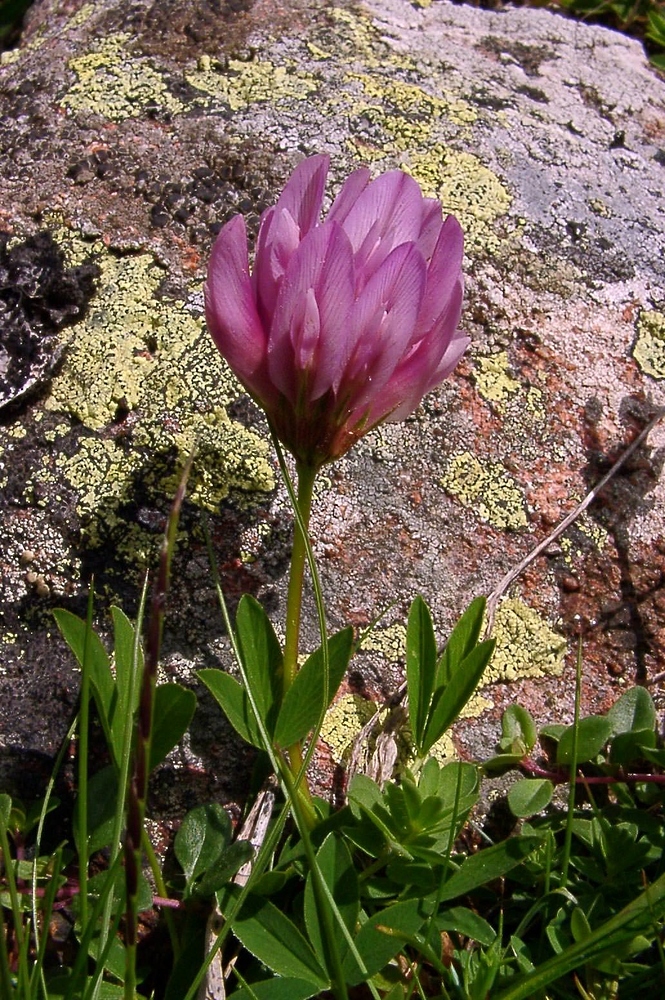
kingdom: Plantae
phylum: Tracheophyta
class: Magnoliopsida
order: Fabales
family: Fabaceae
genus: Trifolium
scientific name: Trifolium alpinum
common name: Alpine clover
